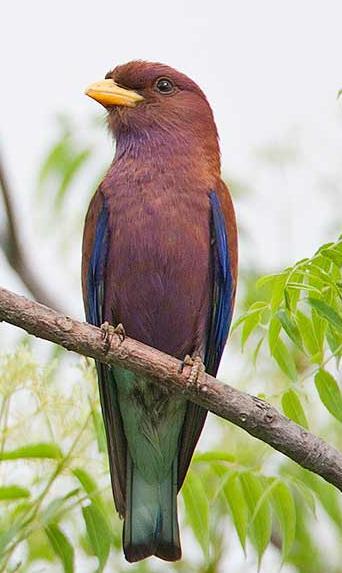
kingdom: Animalia
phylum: Chordata
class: Aves
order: Coraciiformes
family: Coraciidae
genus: Eurystomus
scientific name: Eurystomus glaucurus
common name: Broad-billed roller
